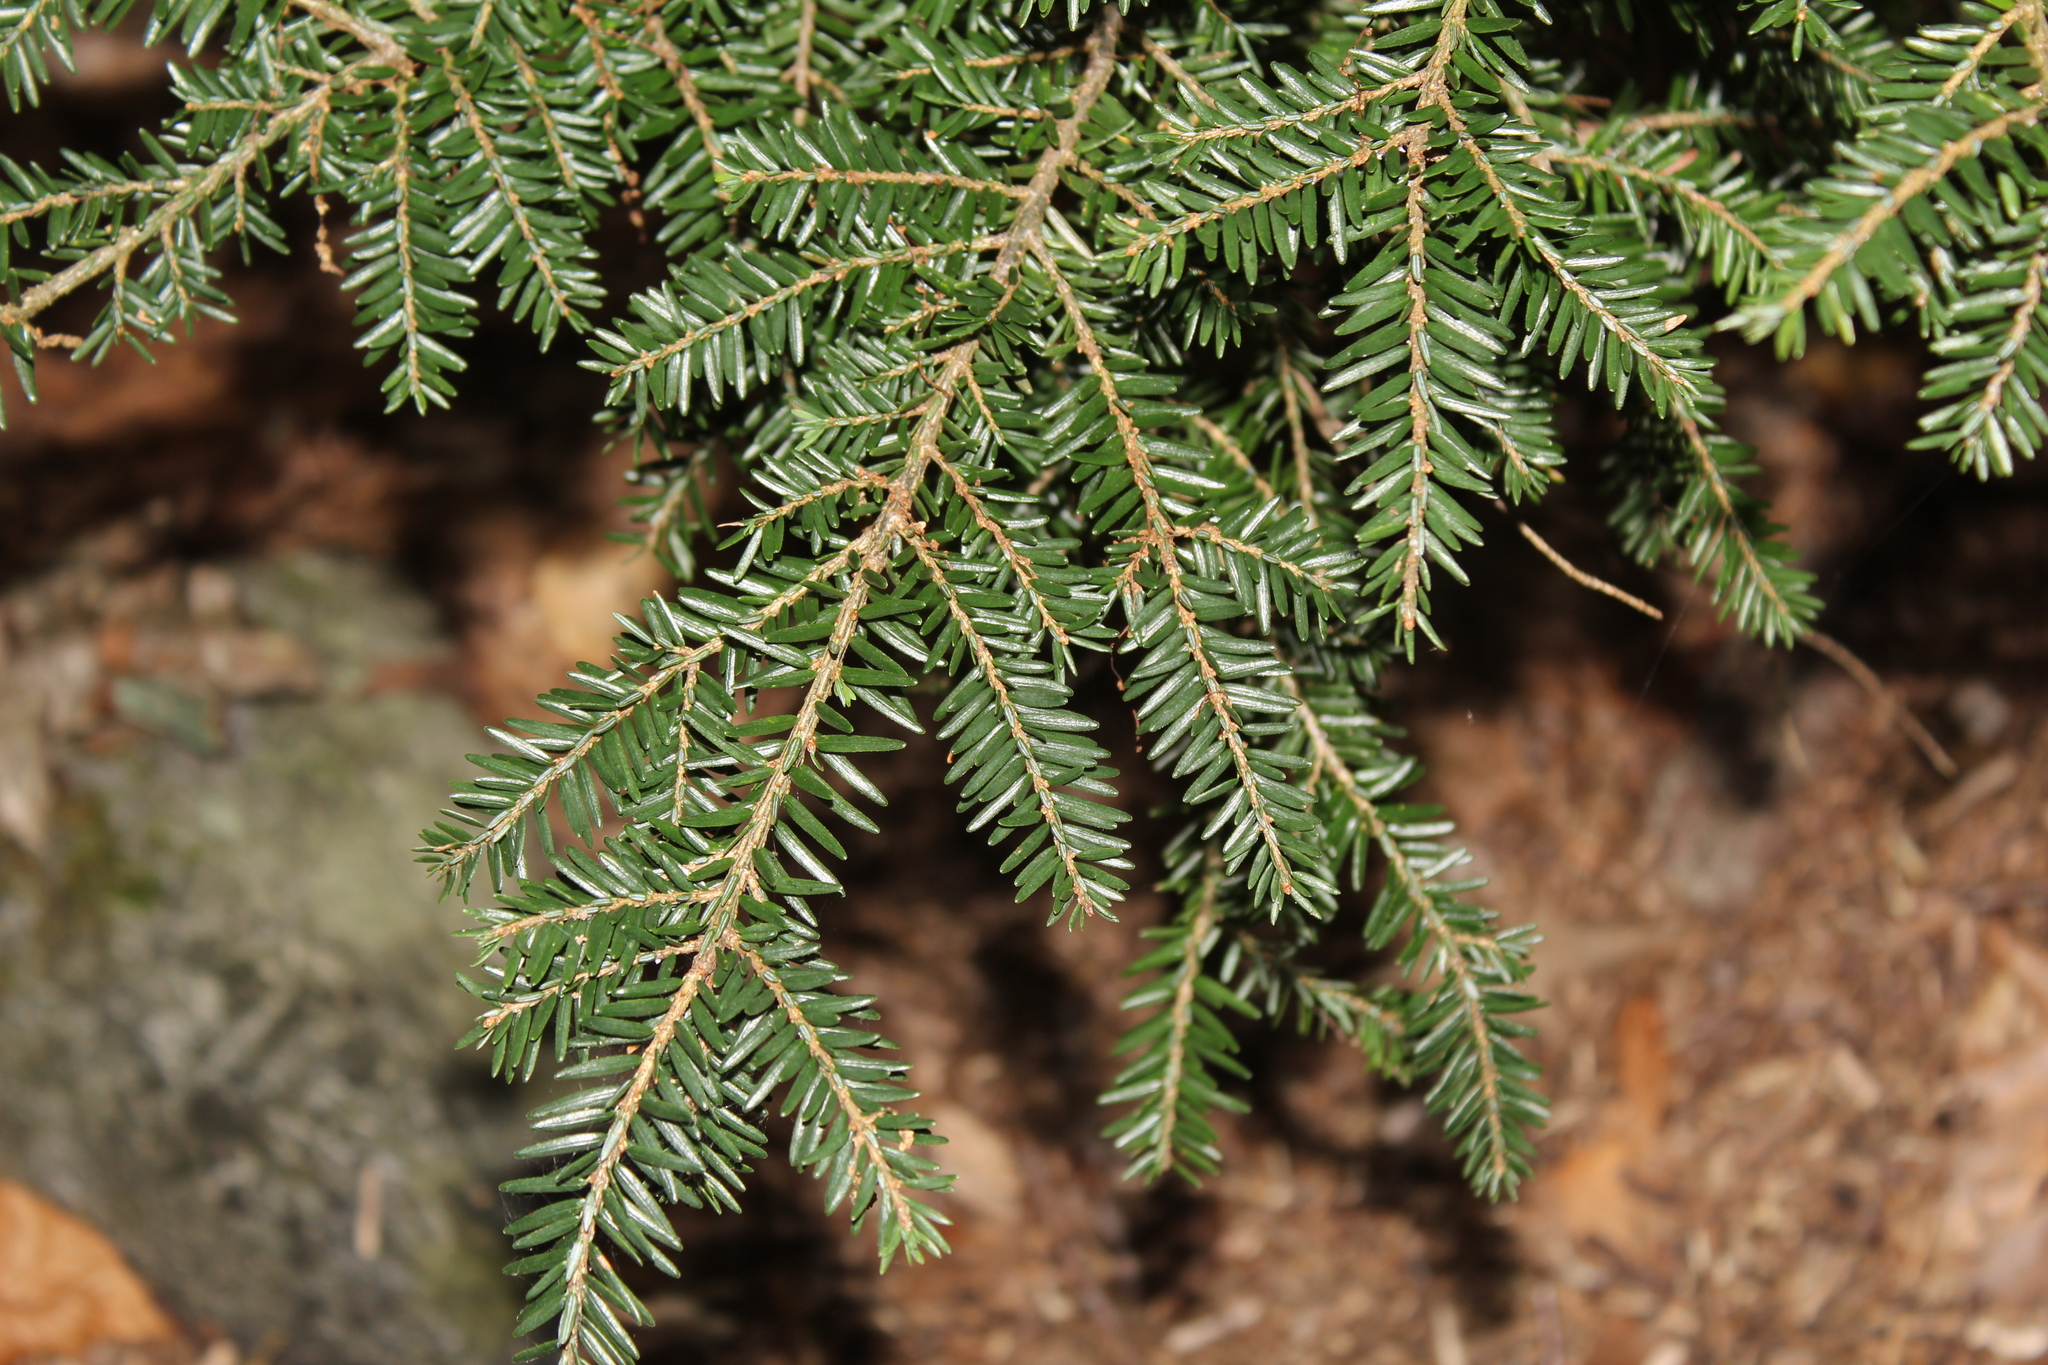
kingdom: Plantae
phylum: Tracheophyta
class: Pinopsida
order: Pinales
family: Pinaceae
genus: Tsuga
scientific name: Tsuga canadensis
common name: Eastern hemlock
